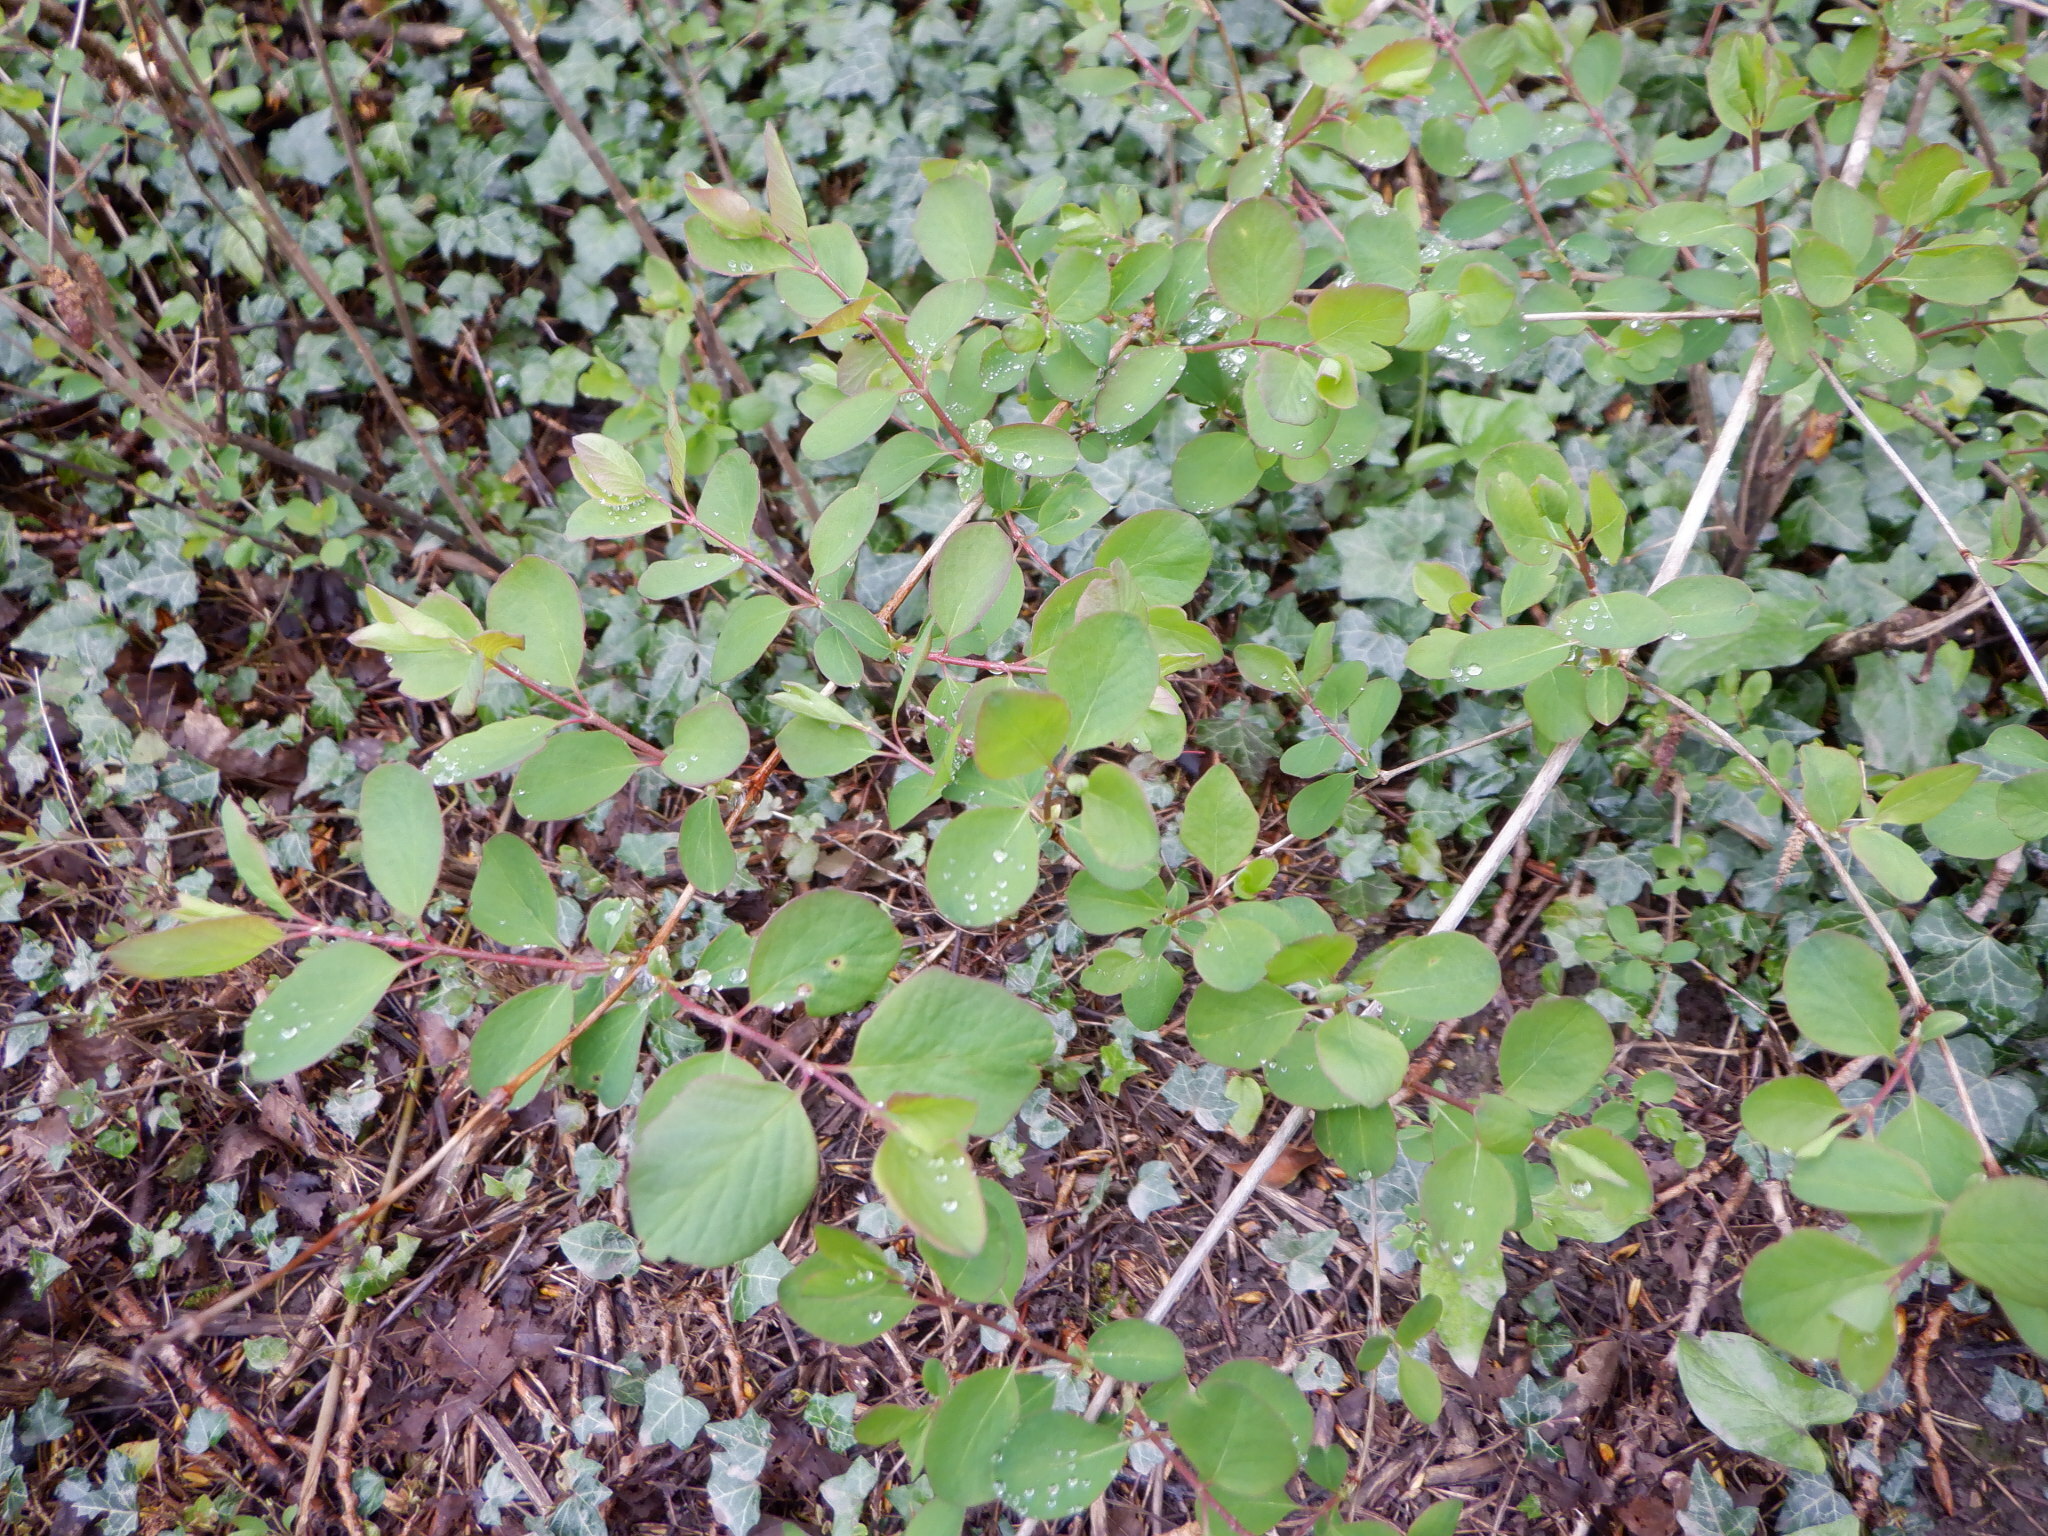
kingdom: Plantae
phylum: Tracheophyta
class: Magnoliopsida
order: Dipsacales
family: Caprifoliaceae
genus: Symphoricarpos
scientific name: Symphoricarpos albus
